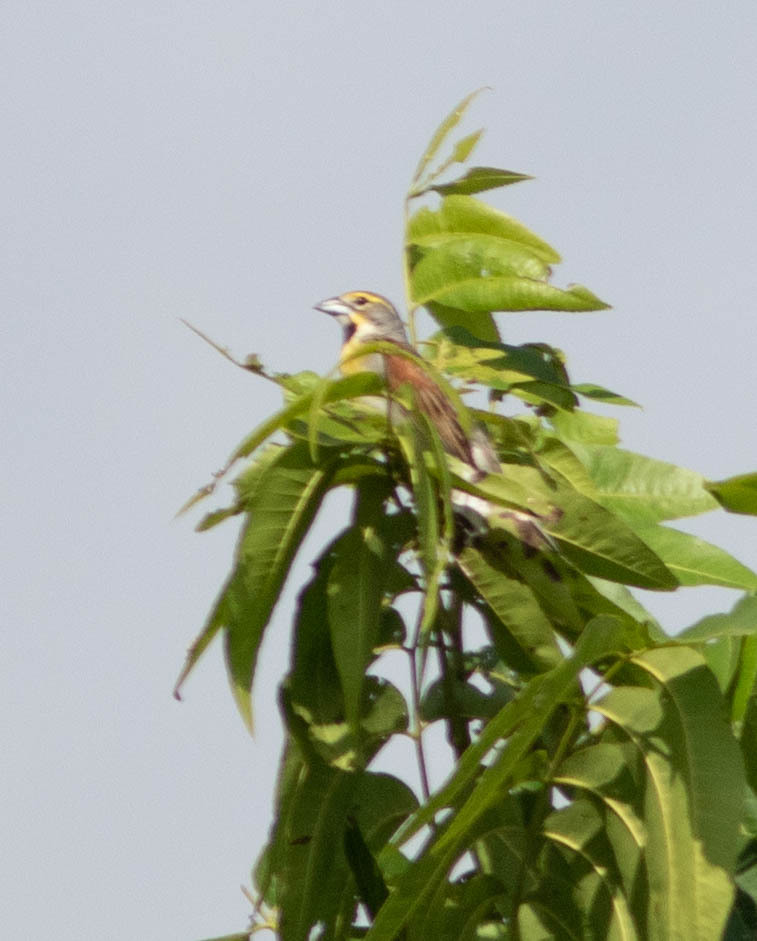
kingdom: Animalia
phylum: Chordata
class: Aves
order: Passeriformes
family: Cardinalidae
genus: Spiza
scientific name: Spiza americana
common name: Dickcissel
